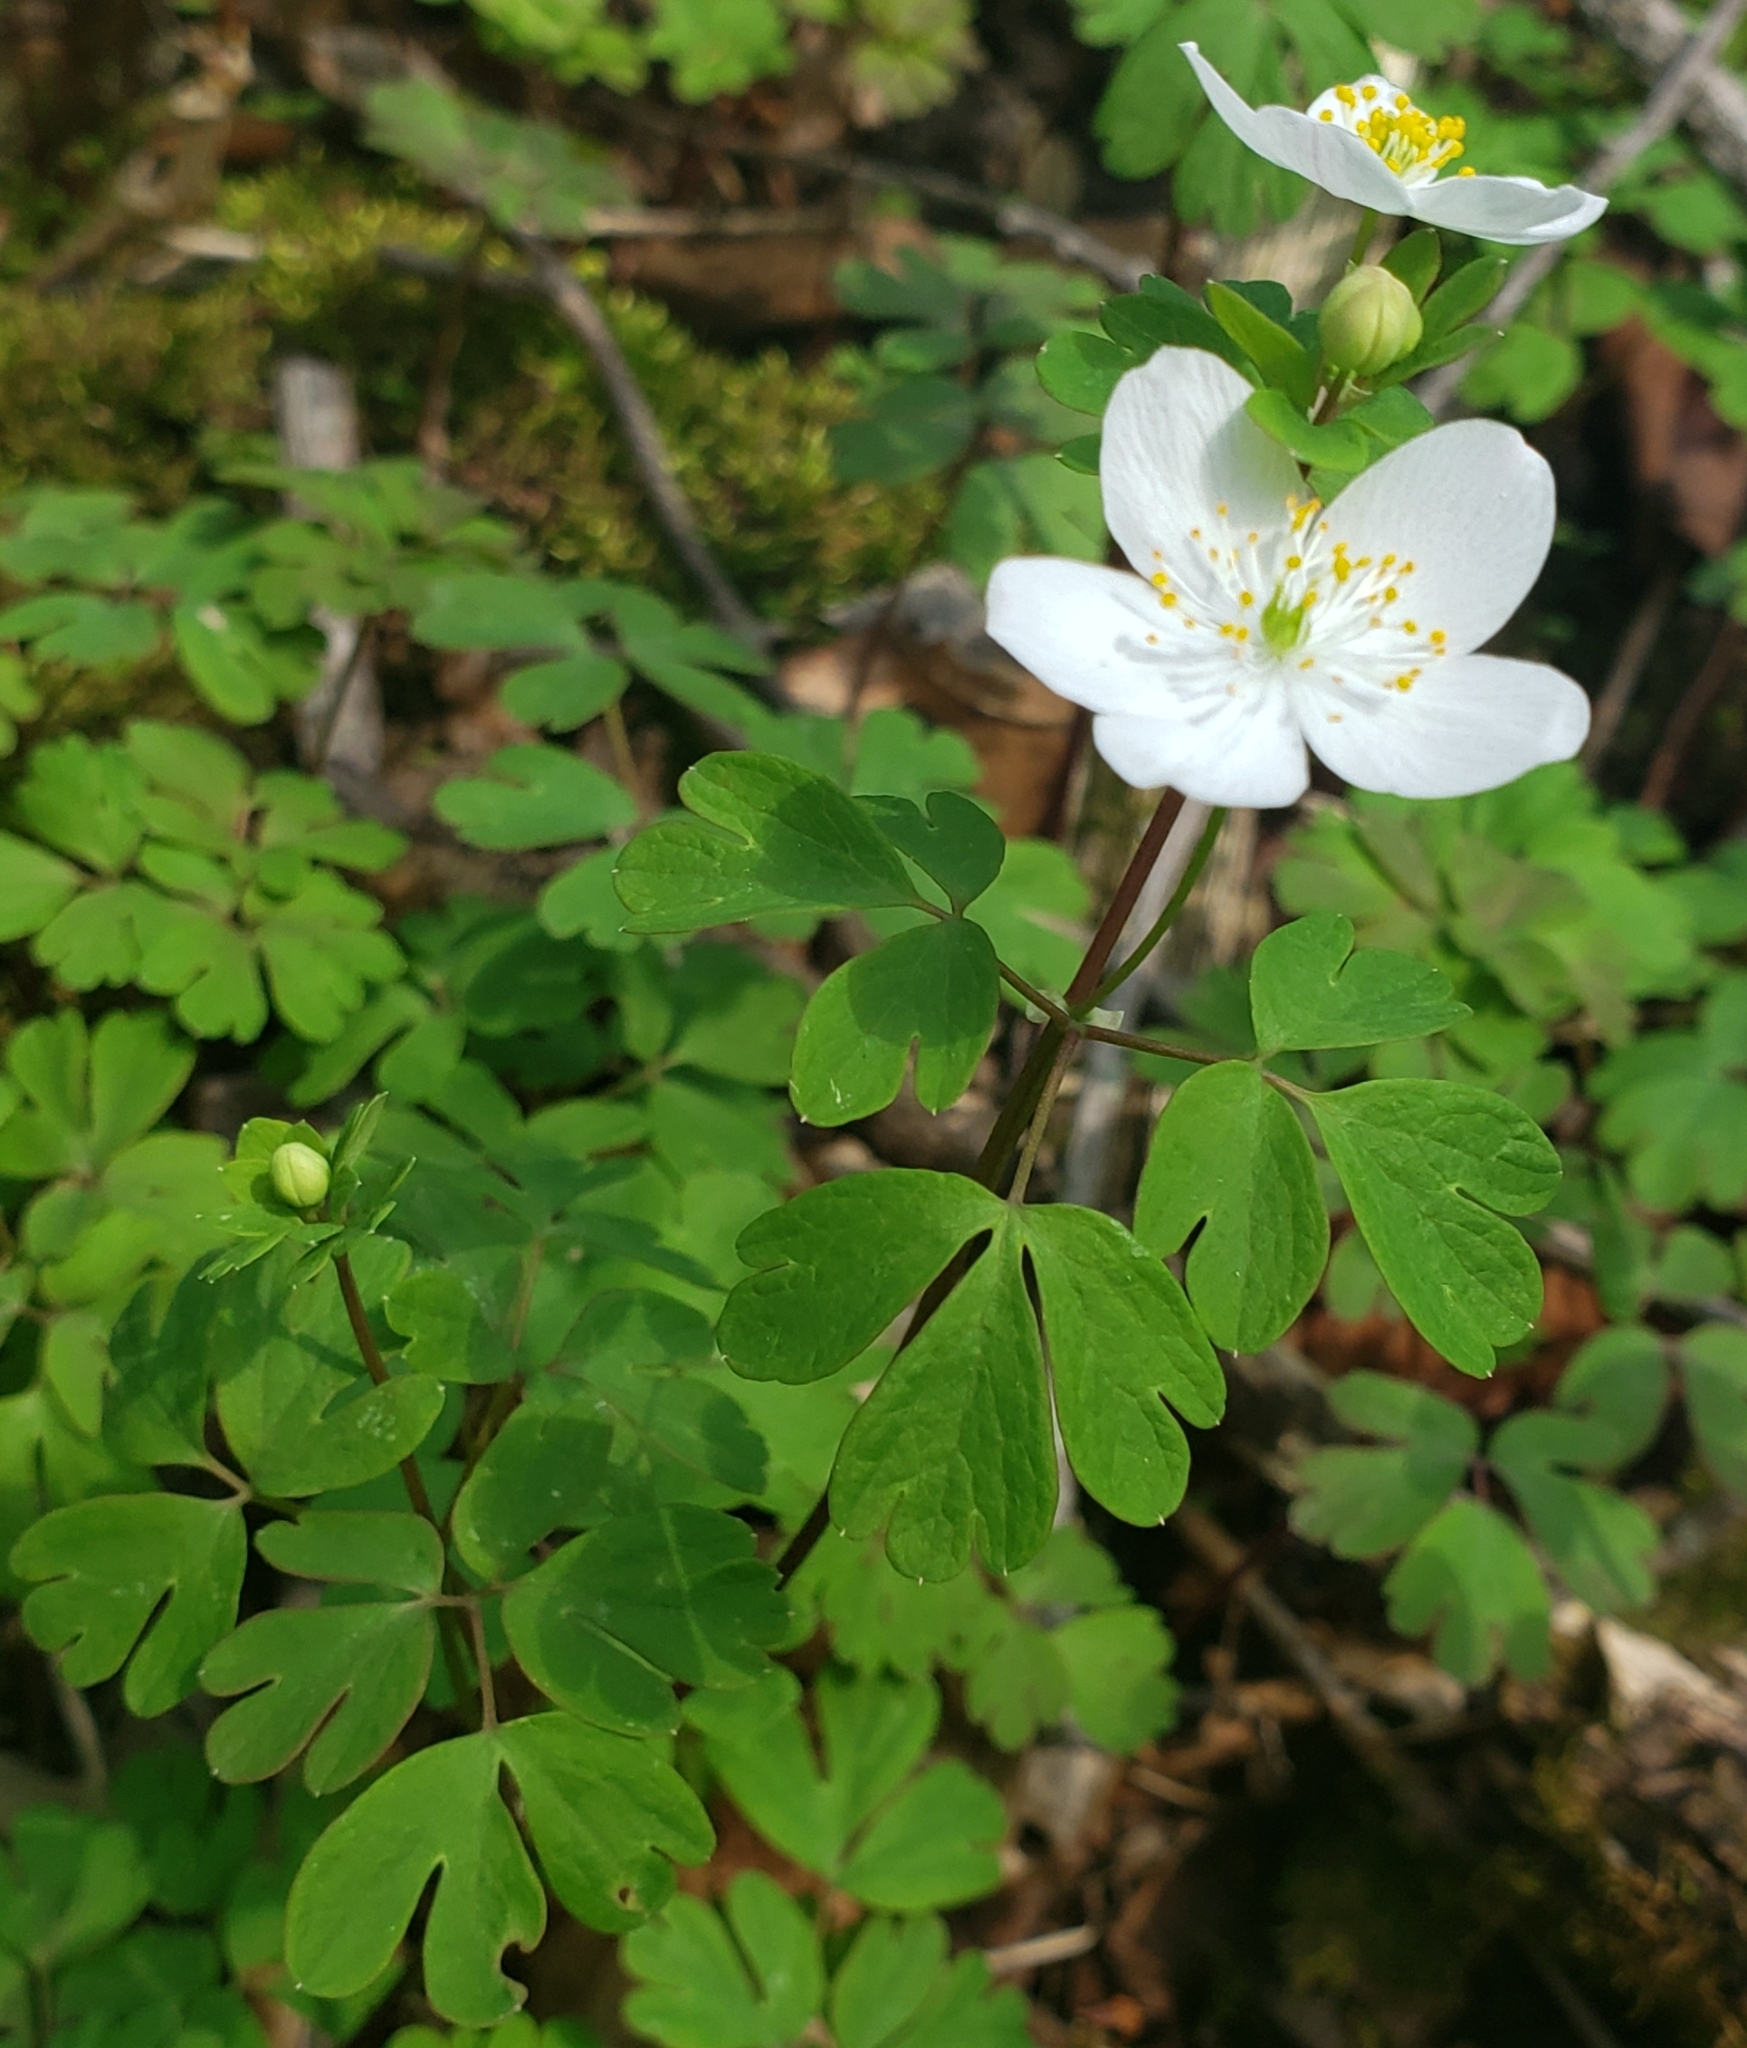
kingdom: Plantae
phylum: Tracheophyta
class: Magnoliopsida
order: Ranunculales
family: Ranunculaceae
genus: Enemion
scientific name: Enemion biternatum
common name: Eastern false rue-anemone
